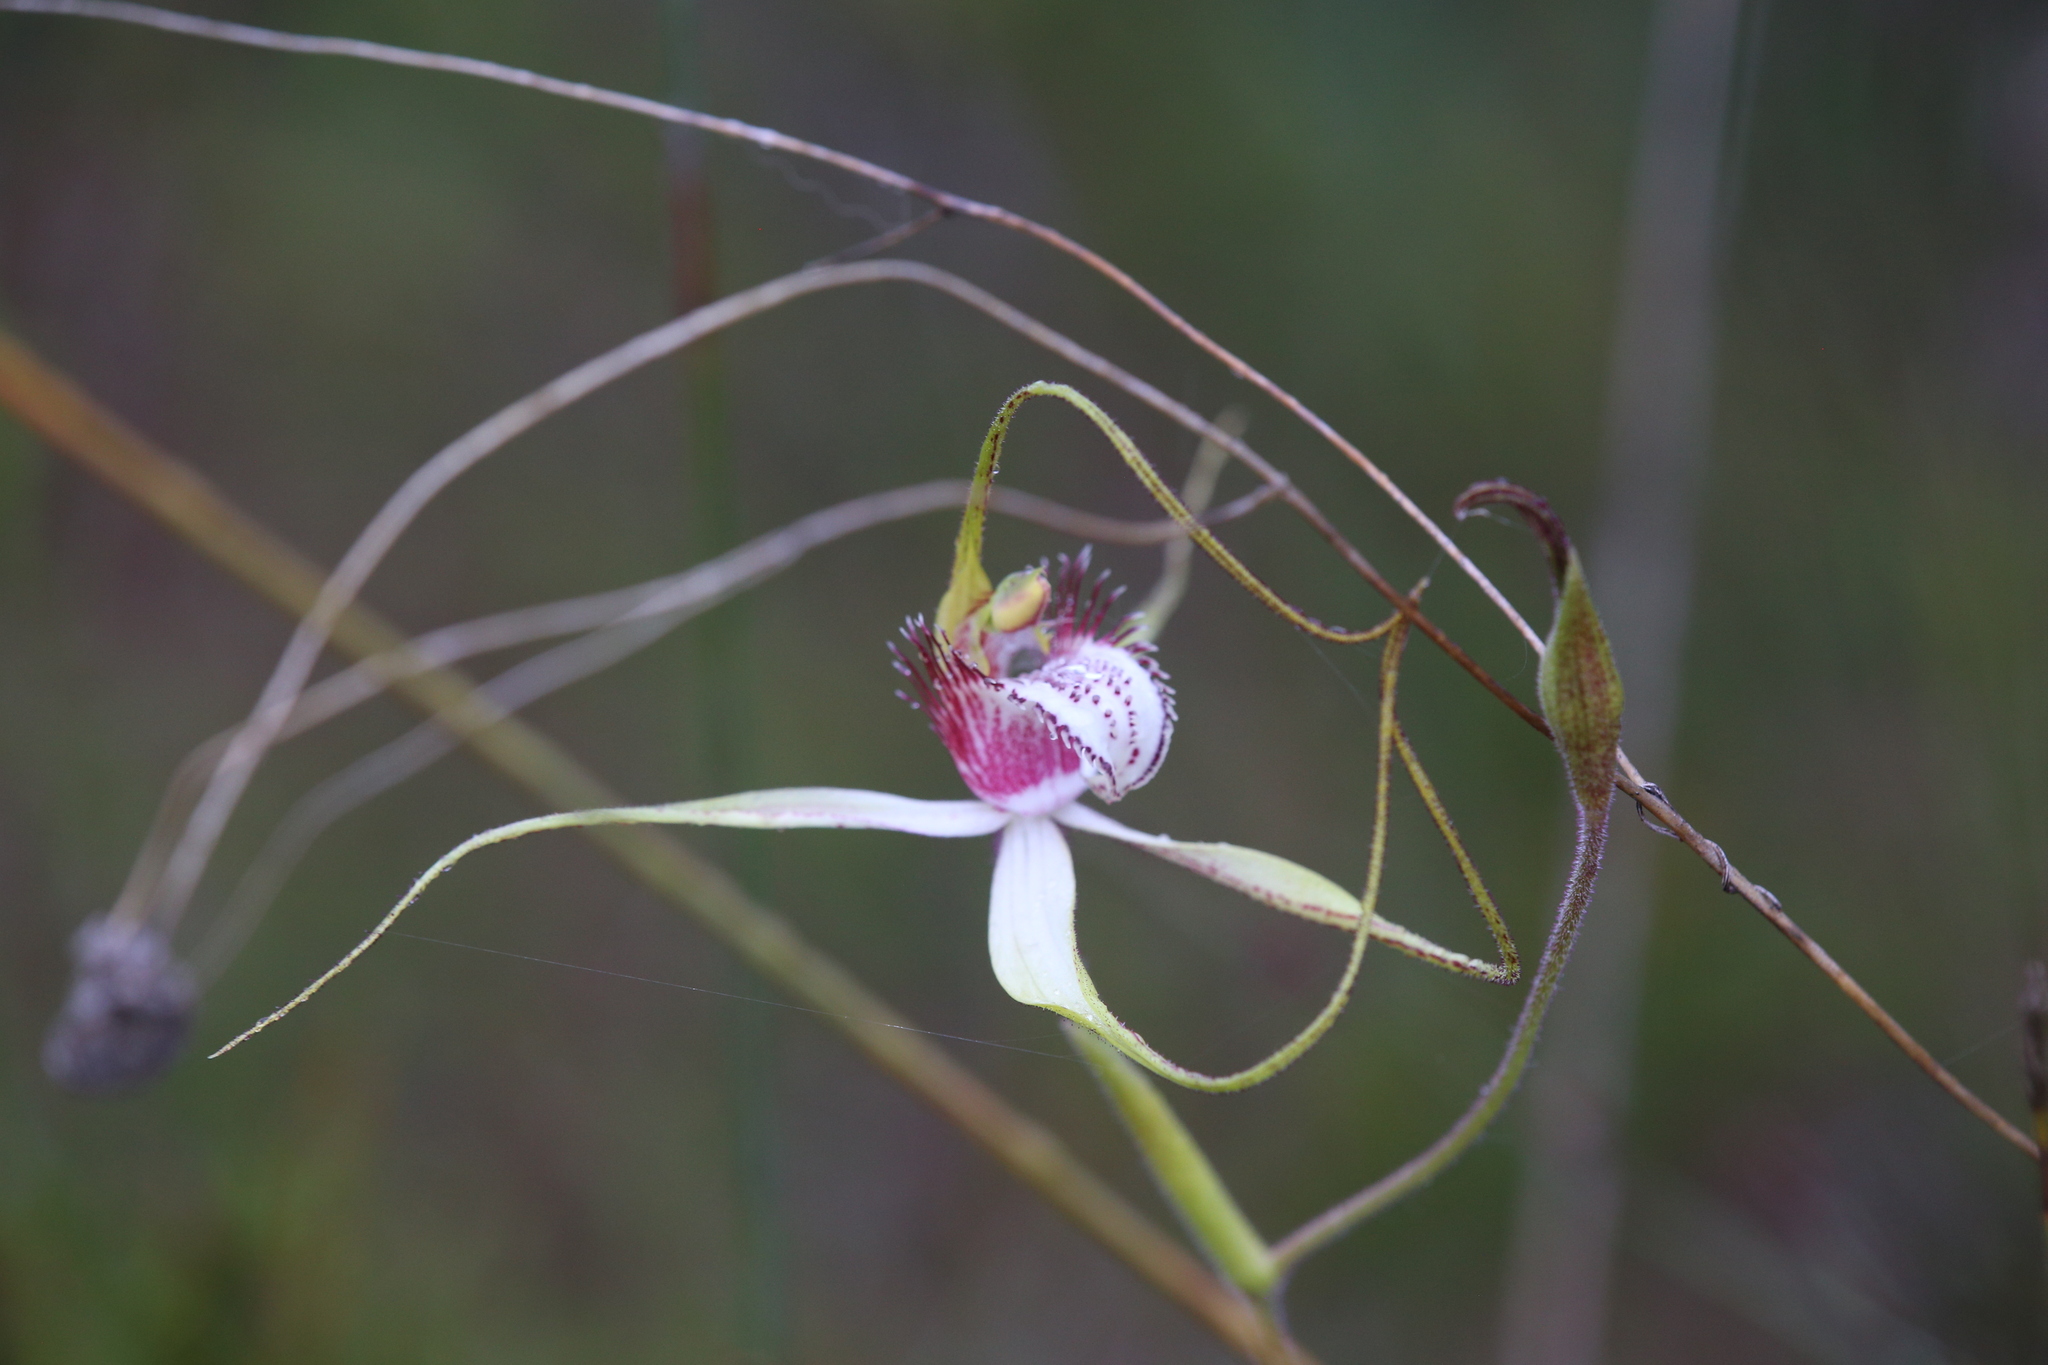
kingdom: Plantae
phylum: Tracheophyta
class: Liliopsida
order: Asparagales
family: Orchidaceae
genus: Caladenia
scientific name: Caladenia serotina
